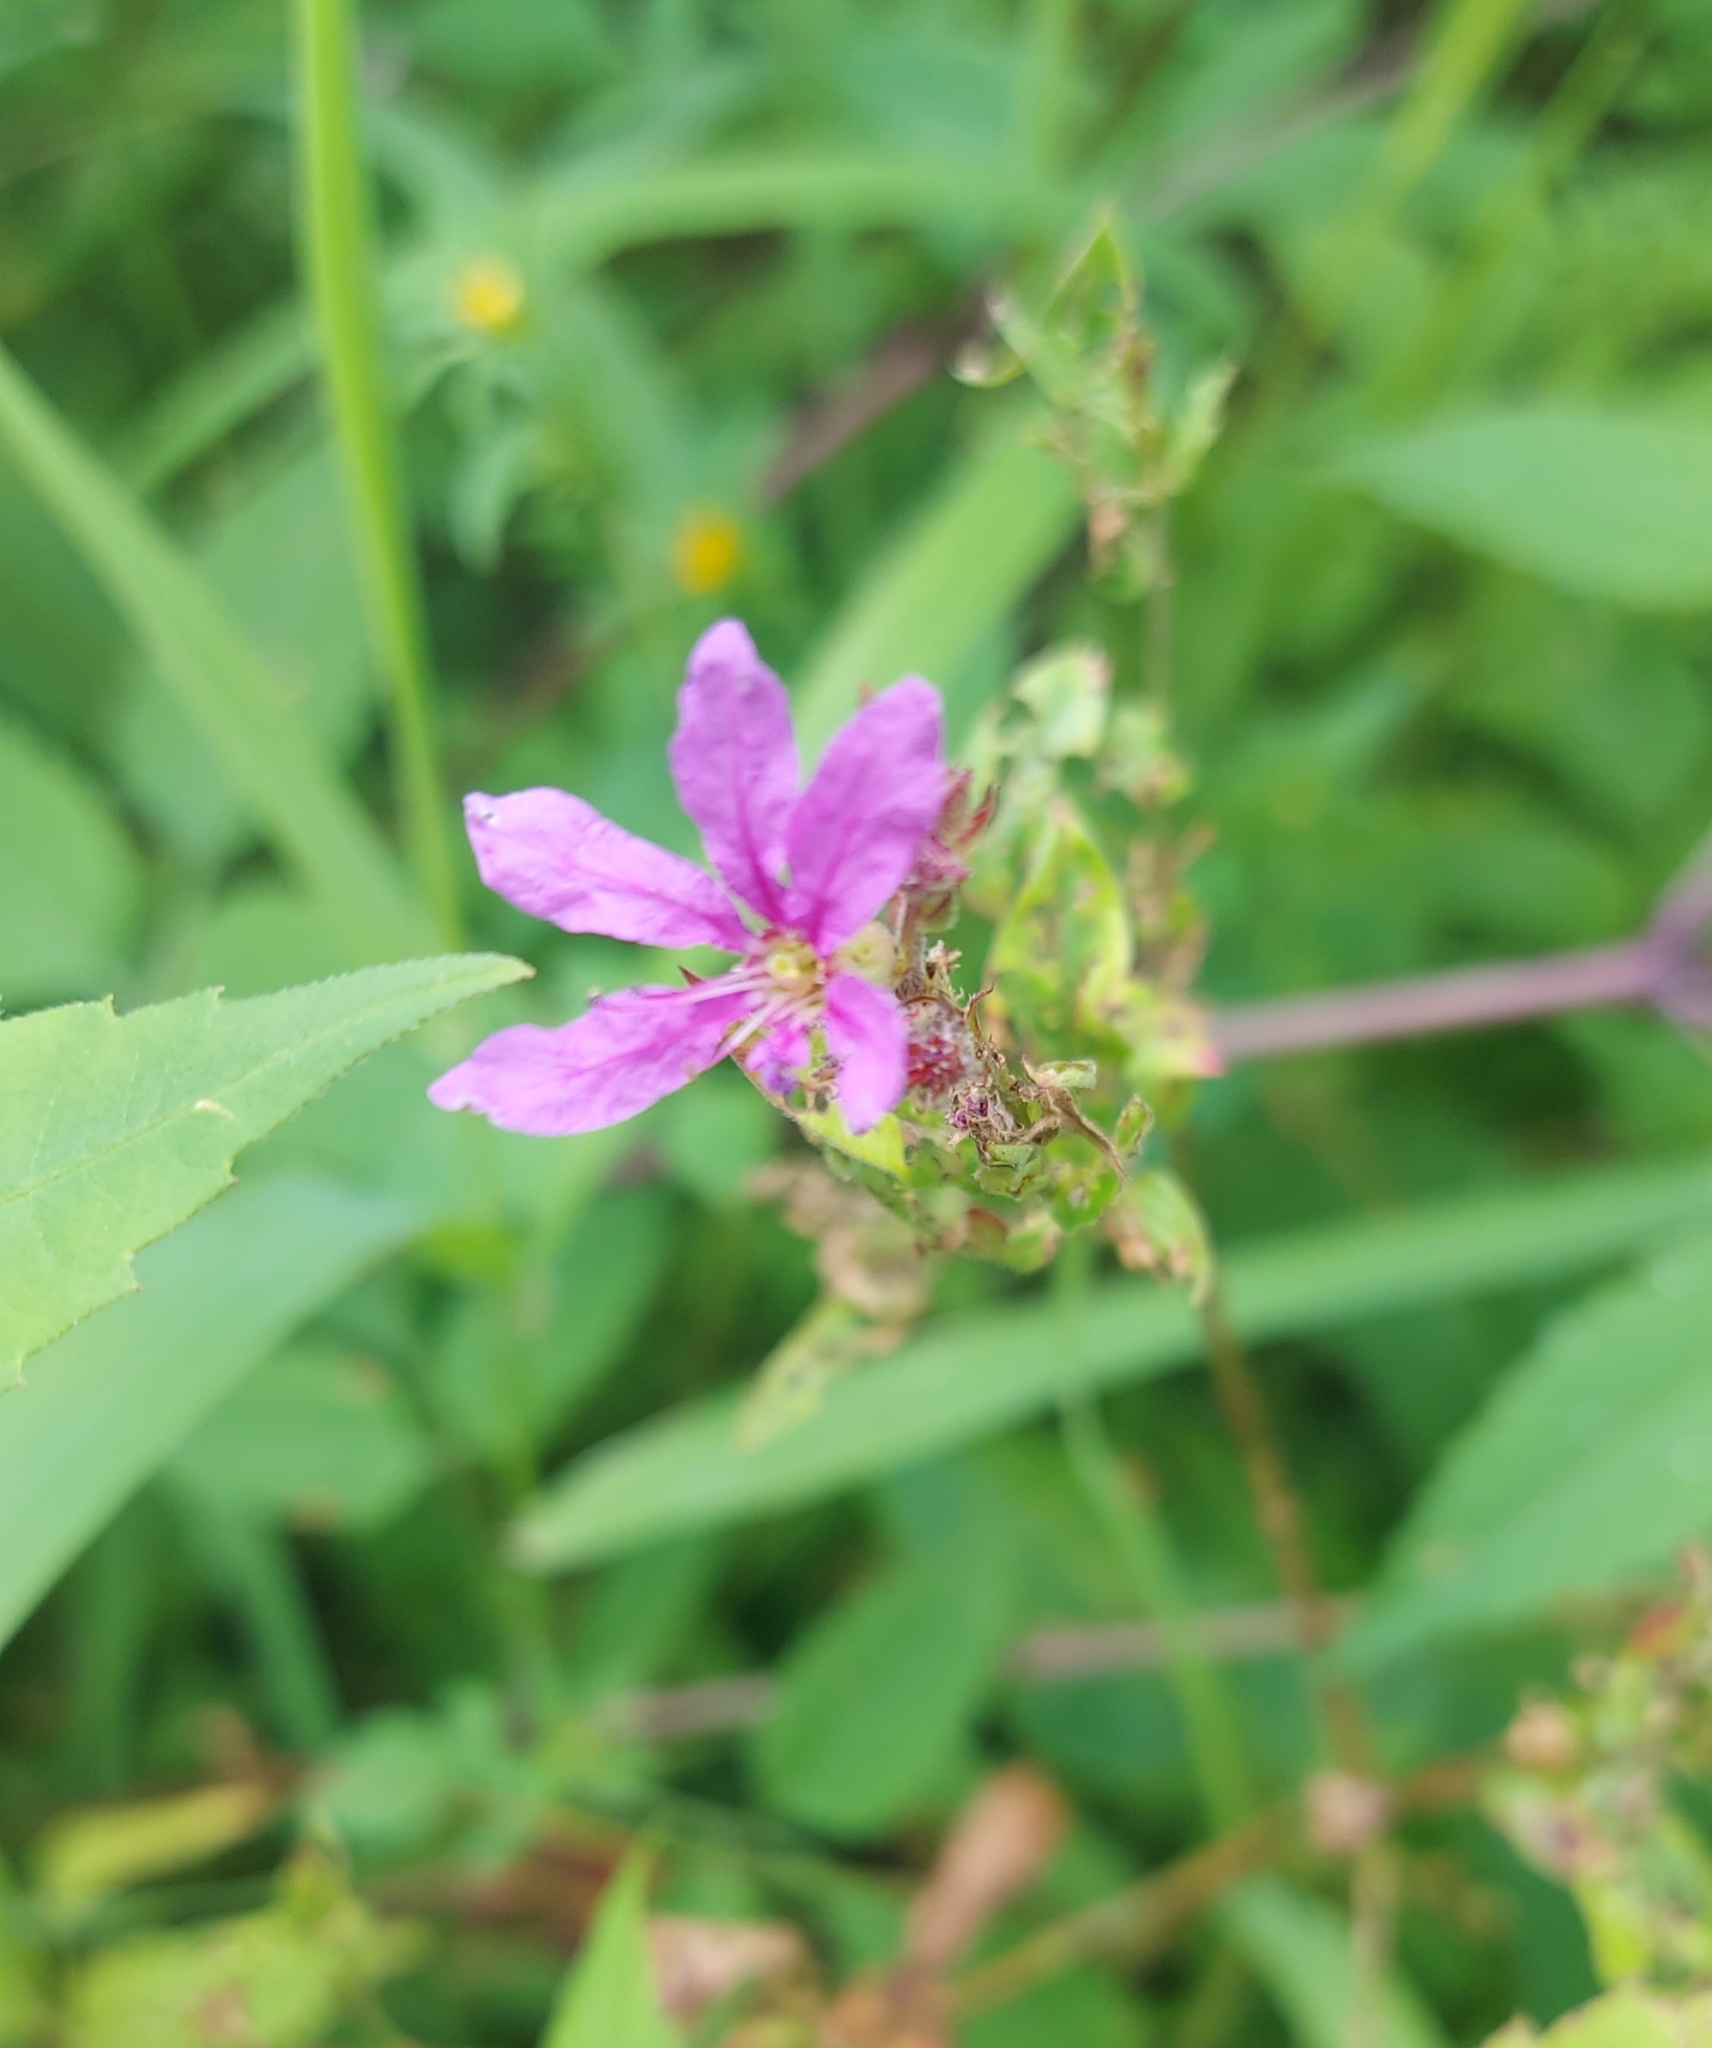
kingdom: Plantae
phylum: Tracheophyta
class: Magnoliopsida
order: Myrtales
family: Lythraceae
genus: Lythrum
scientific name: Lythrum salicaria
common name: Purple loosestrife
